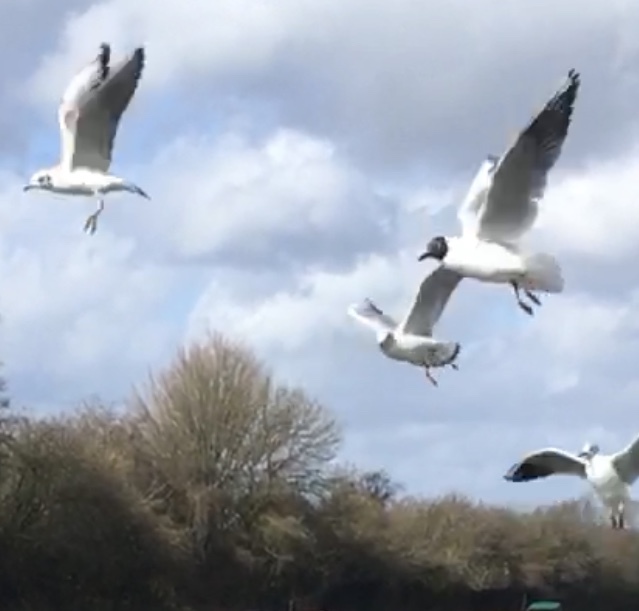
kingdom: Animalia
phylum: Chordata
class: Aves
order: Charadriiformes
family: Laridae
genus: Chroicocephalus
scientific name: Chroicocephalus ridibundus
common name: Black-headed gull
